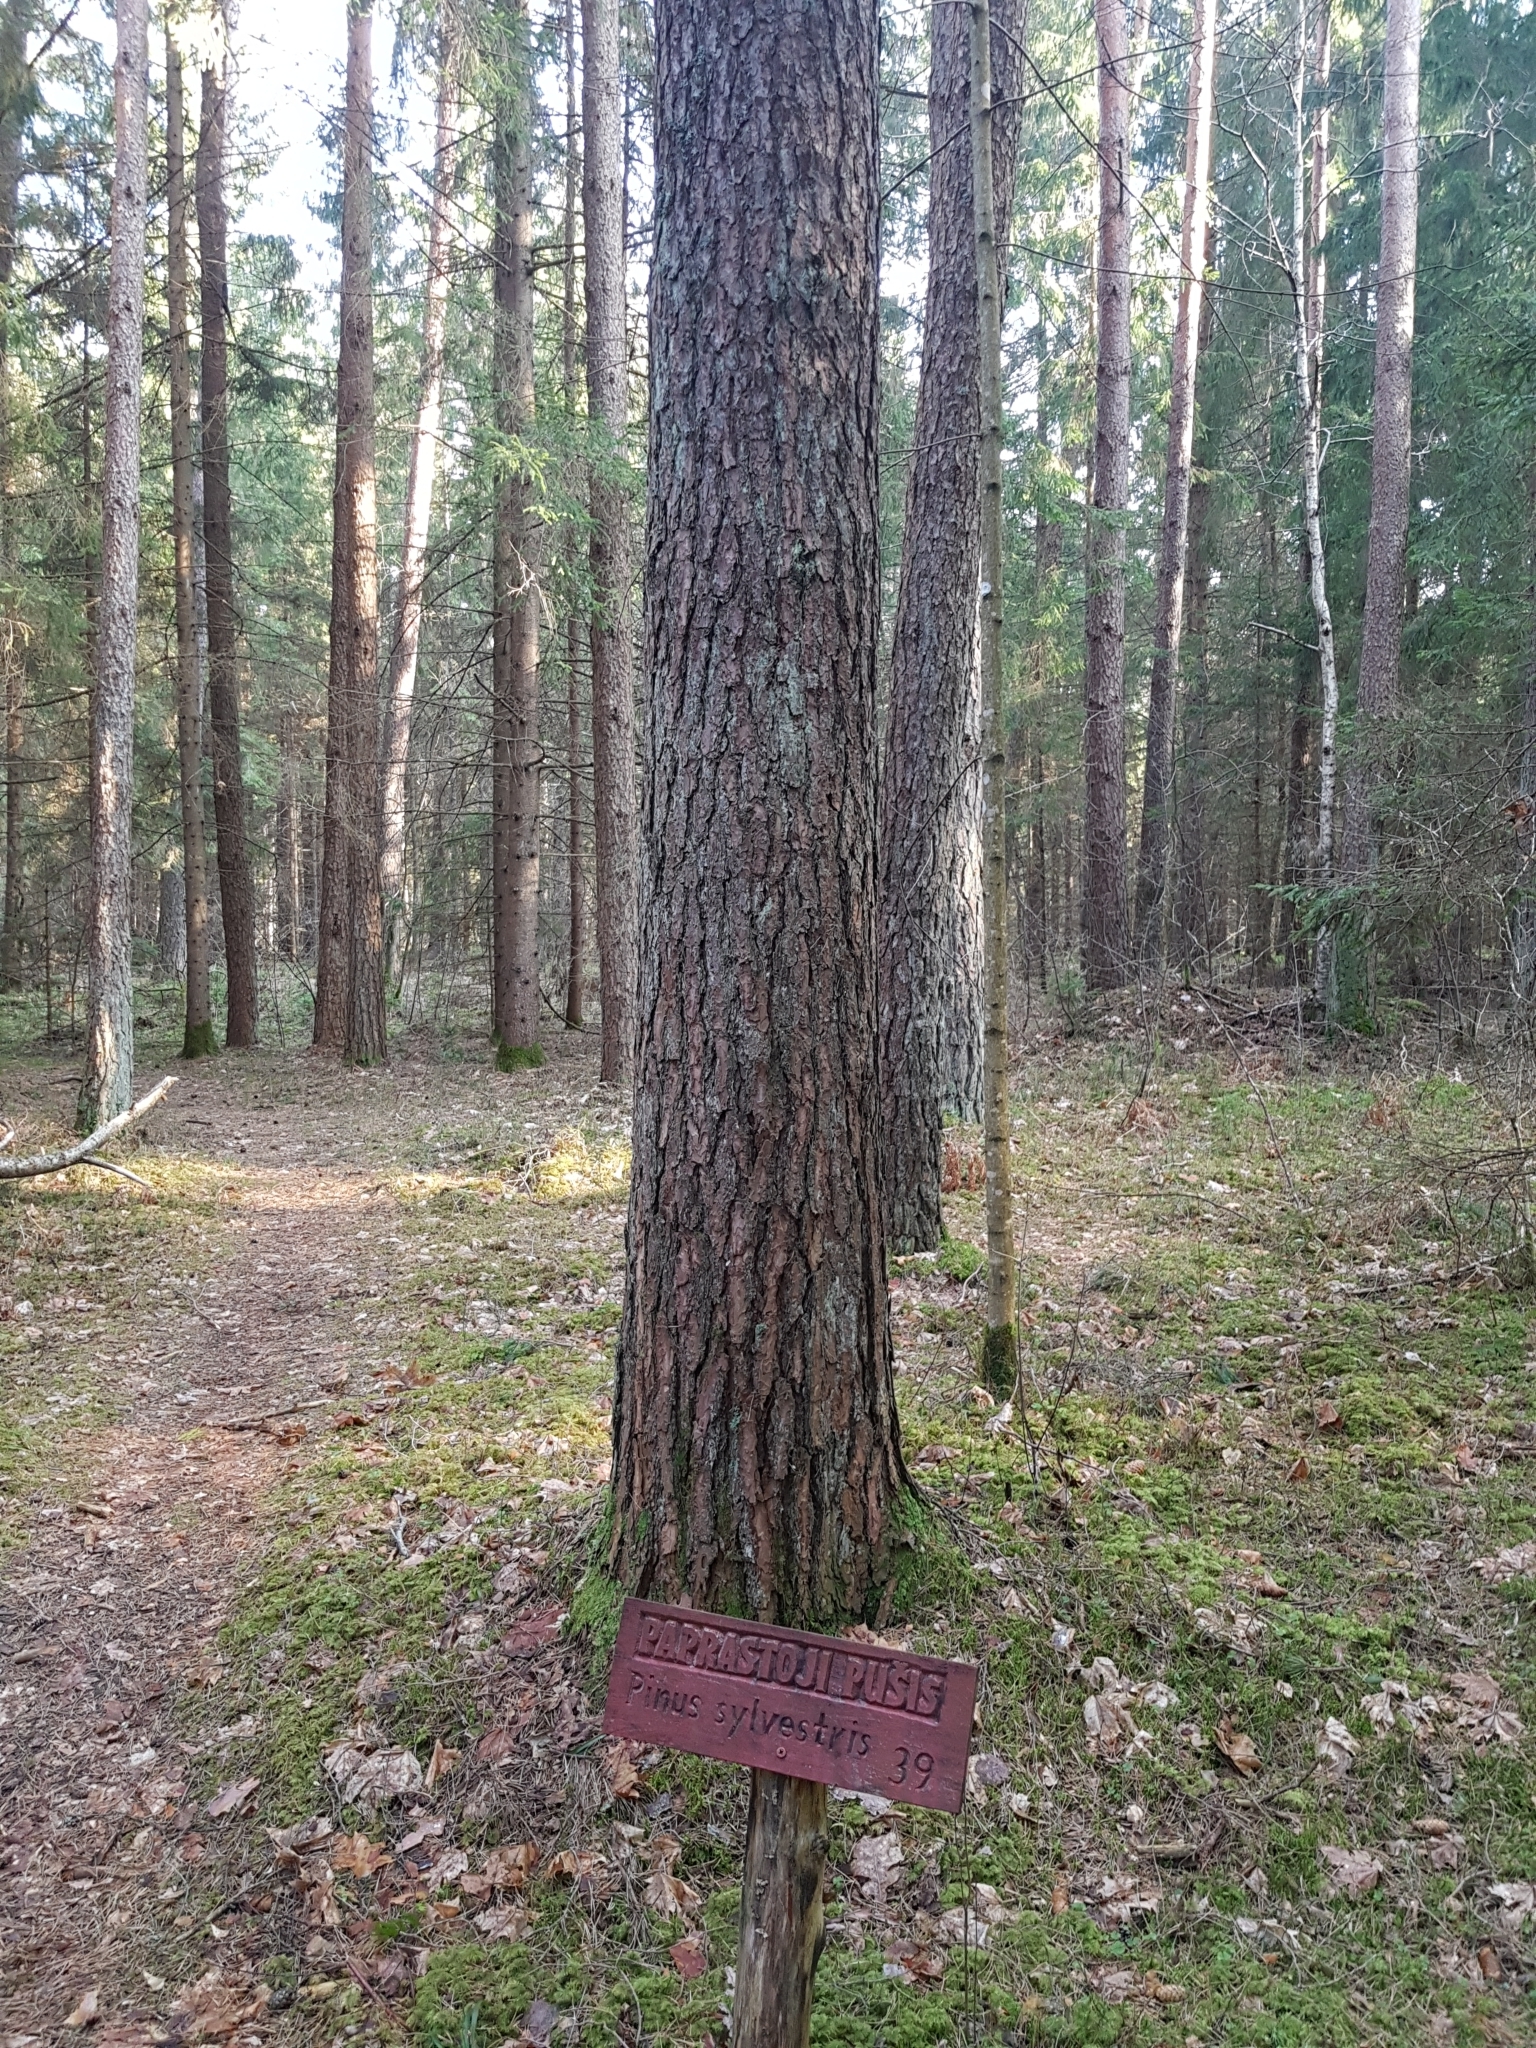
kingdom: Plantae
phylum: Tracheophyta
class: Pinopsida
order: Pinales
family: Pinaceae
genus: Pinus
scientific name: Pinus sylvestris
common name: Scots pine
